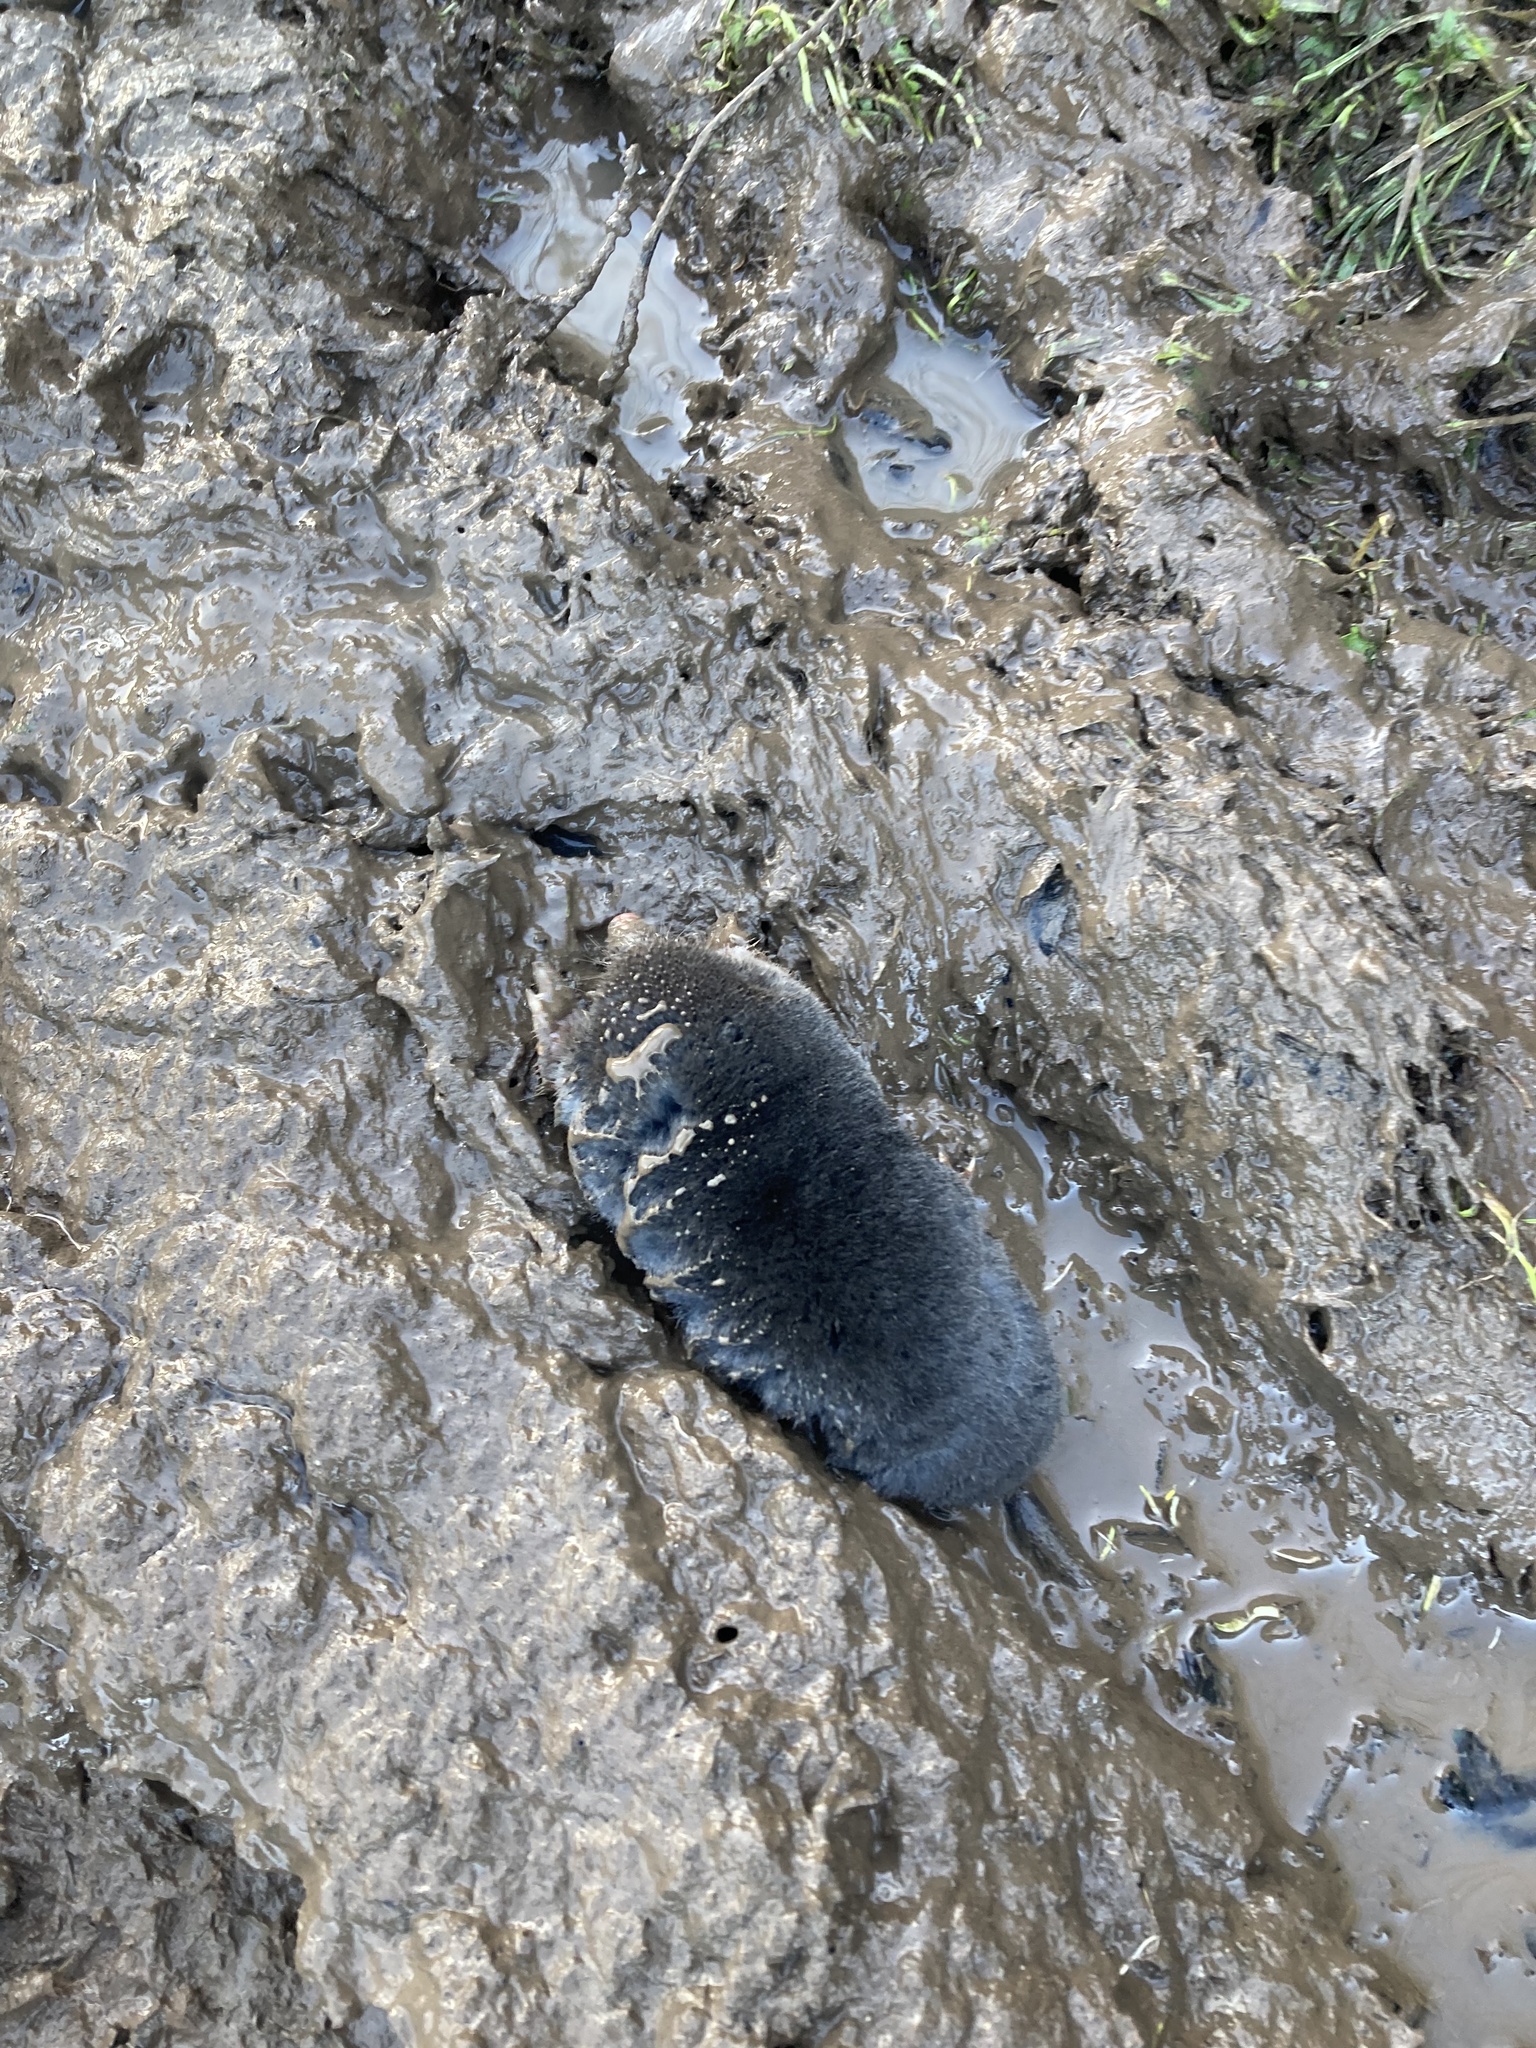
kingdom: Animalia
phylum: Chordata
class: Mammalia
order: Soricomorpha
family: Talpidae
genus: Talpa
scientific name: Talpa europaea
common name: European mole
